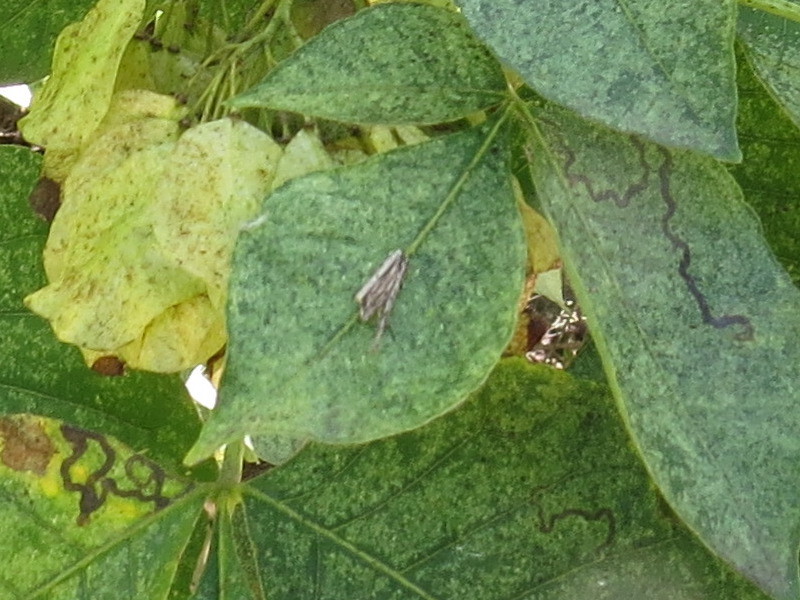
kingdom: Animalia
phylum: Arthropoda
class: Insecta
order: Lepidoptera
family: Nepticulidae
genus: Fomoria
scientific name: Fomoria pteliaeella
